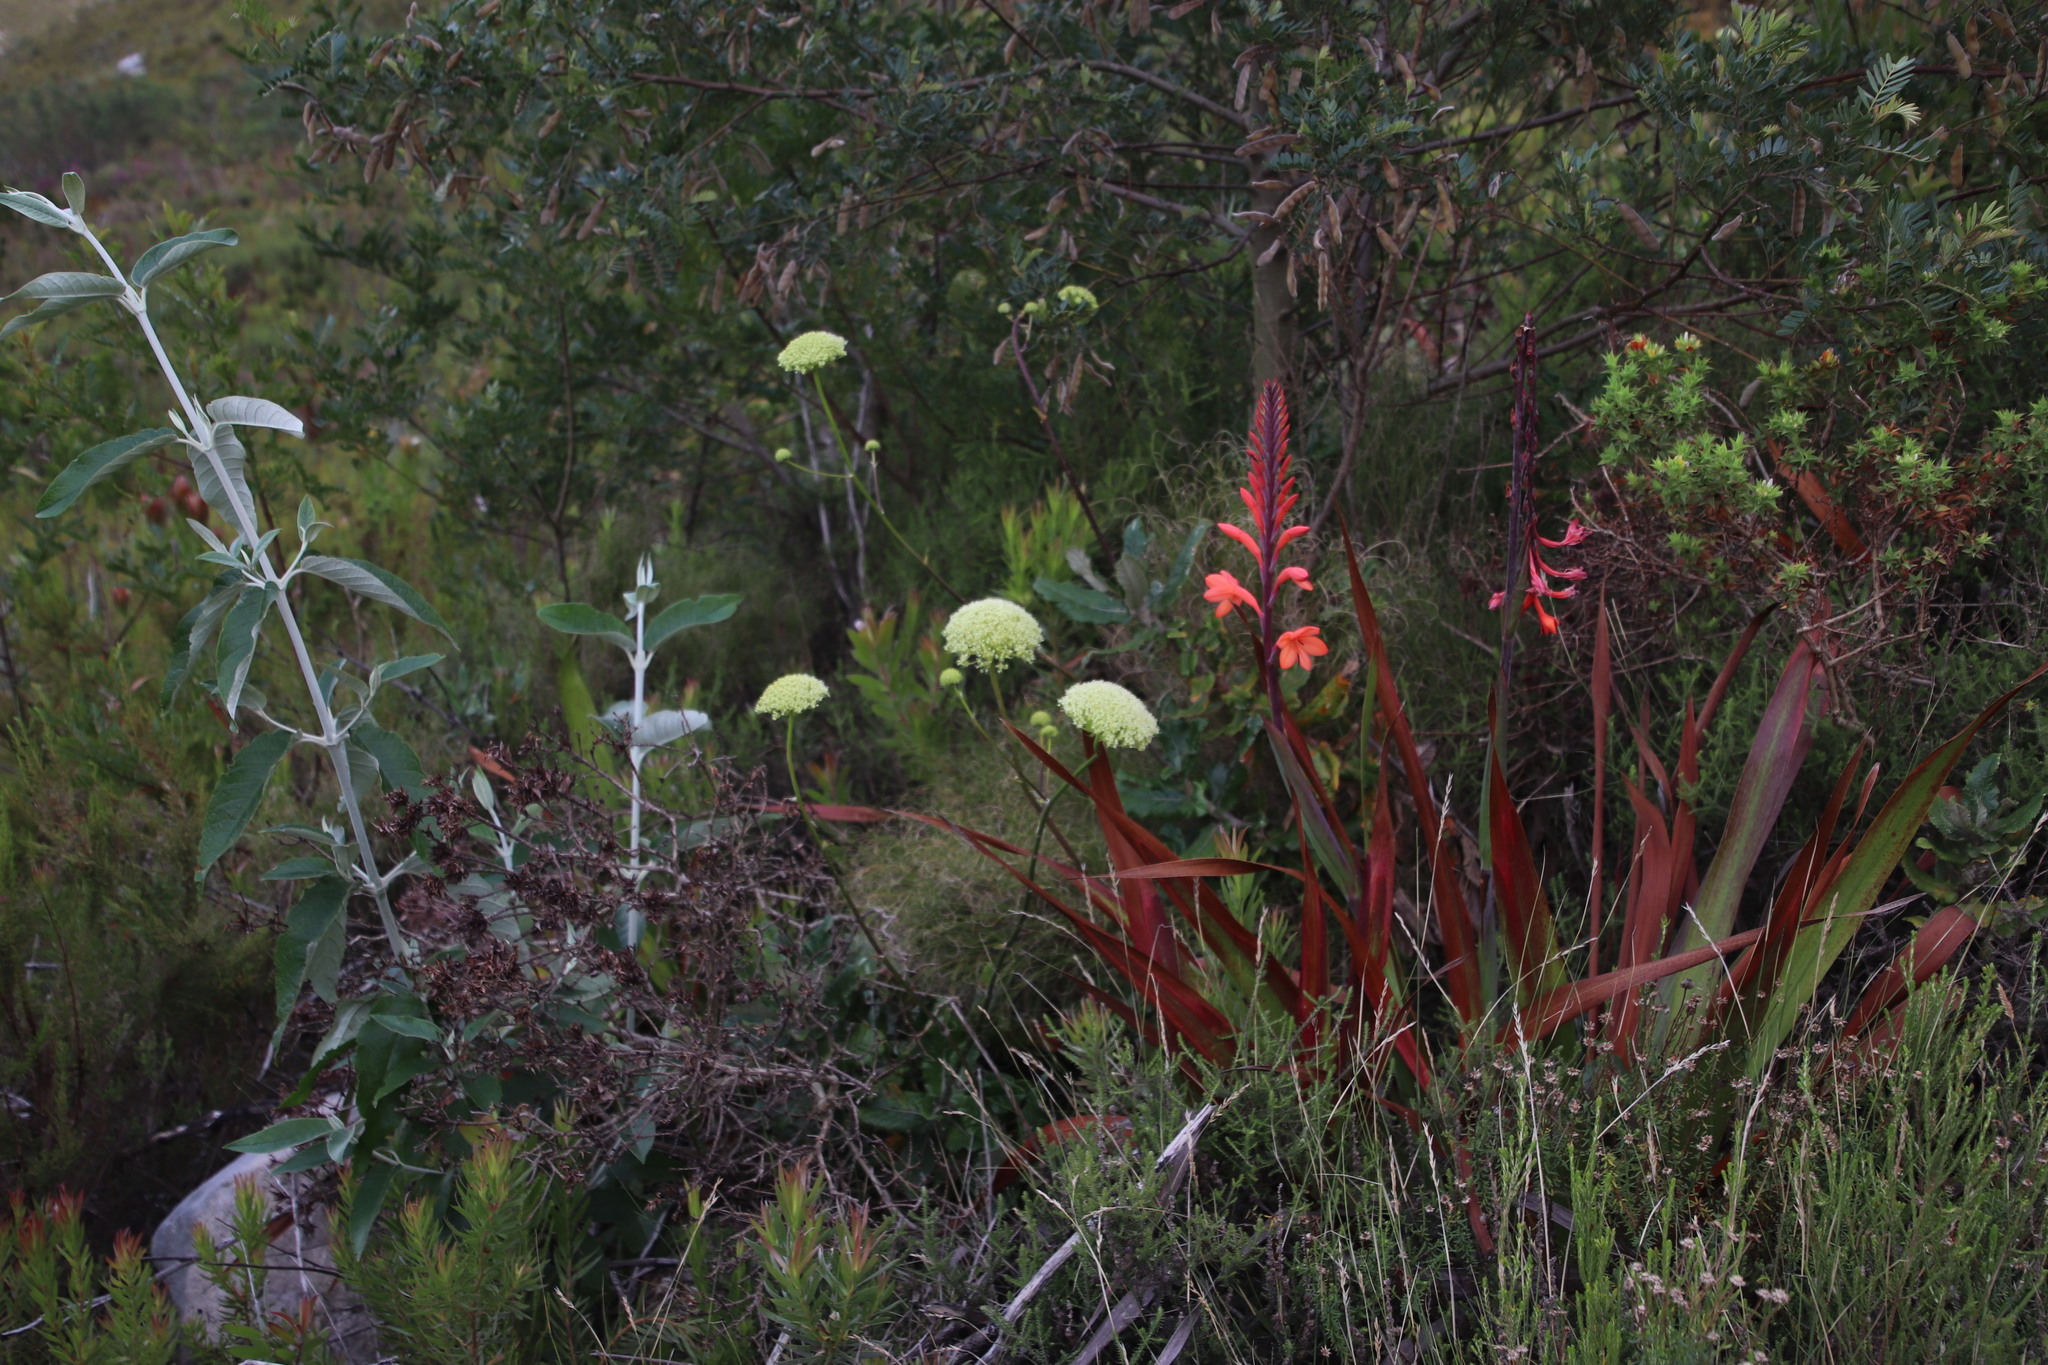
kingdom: Plantae
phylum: Tracheophyta
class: Magnoliopsida
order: Apiales
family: Apiaceae
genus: Hermas
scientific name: Hermas villosa
